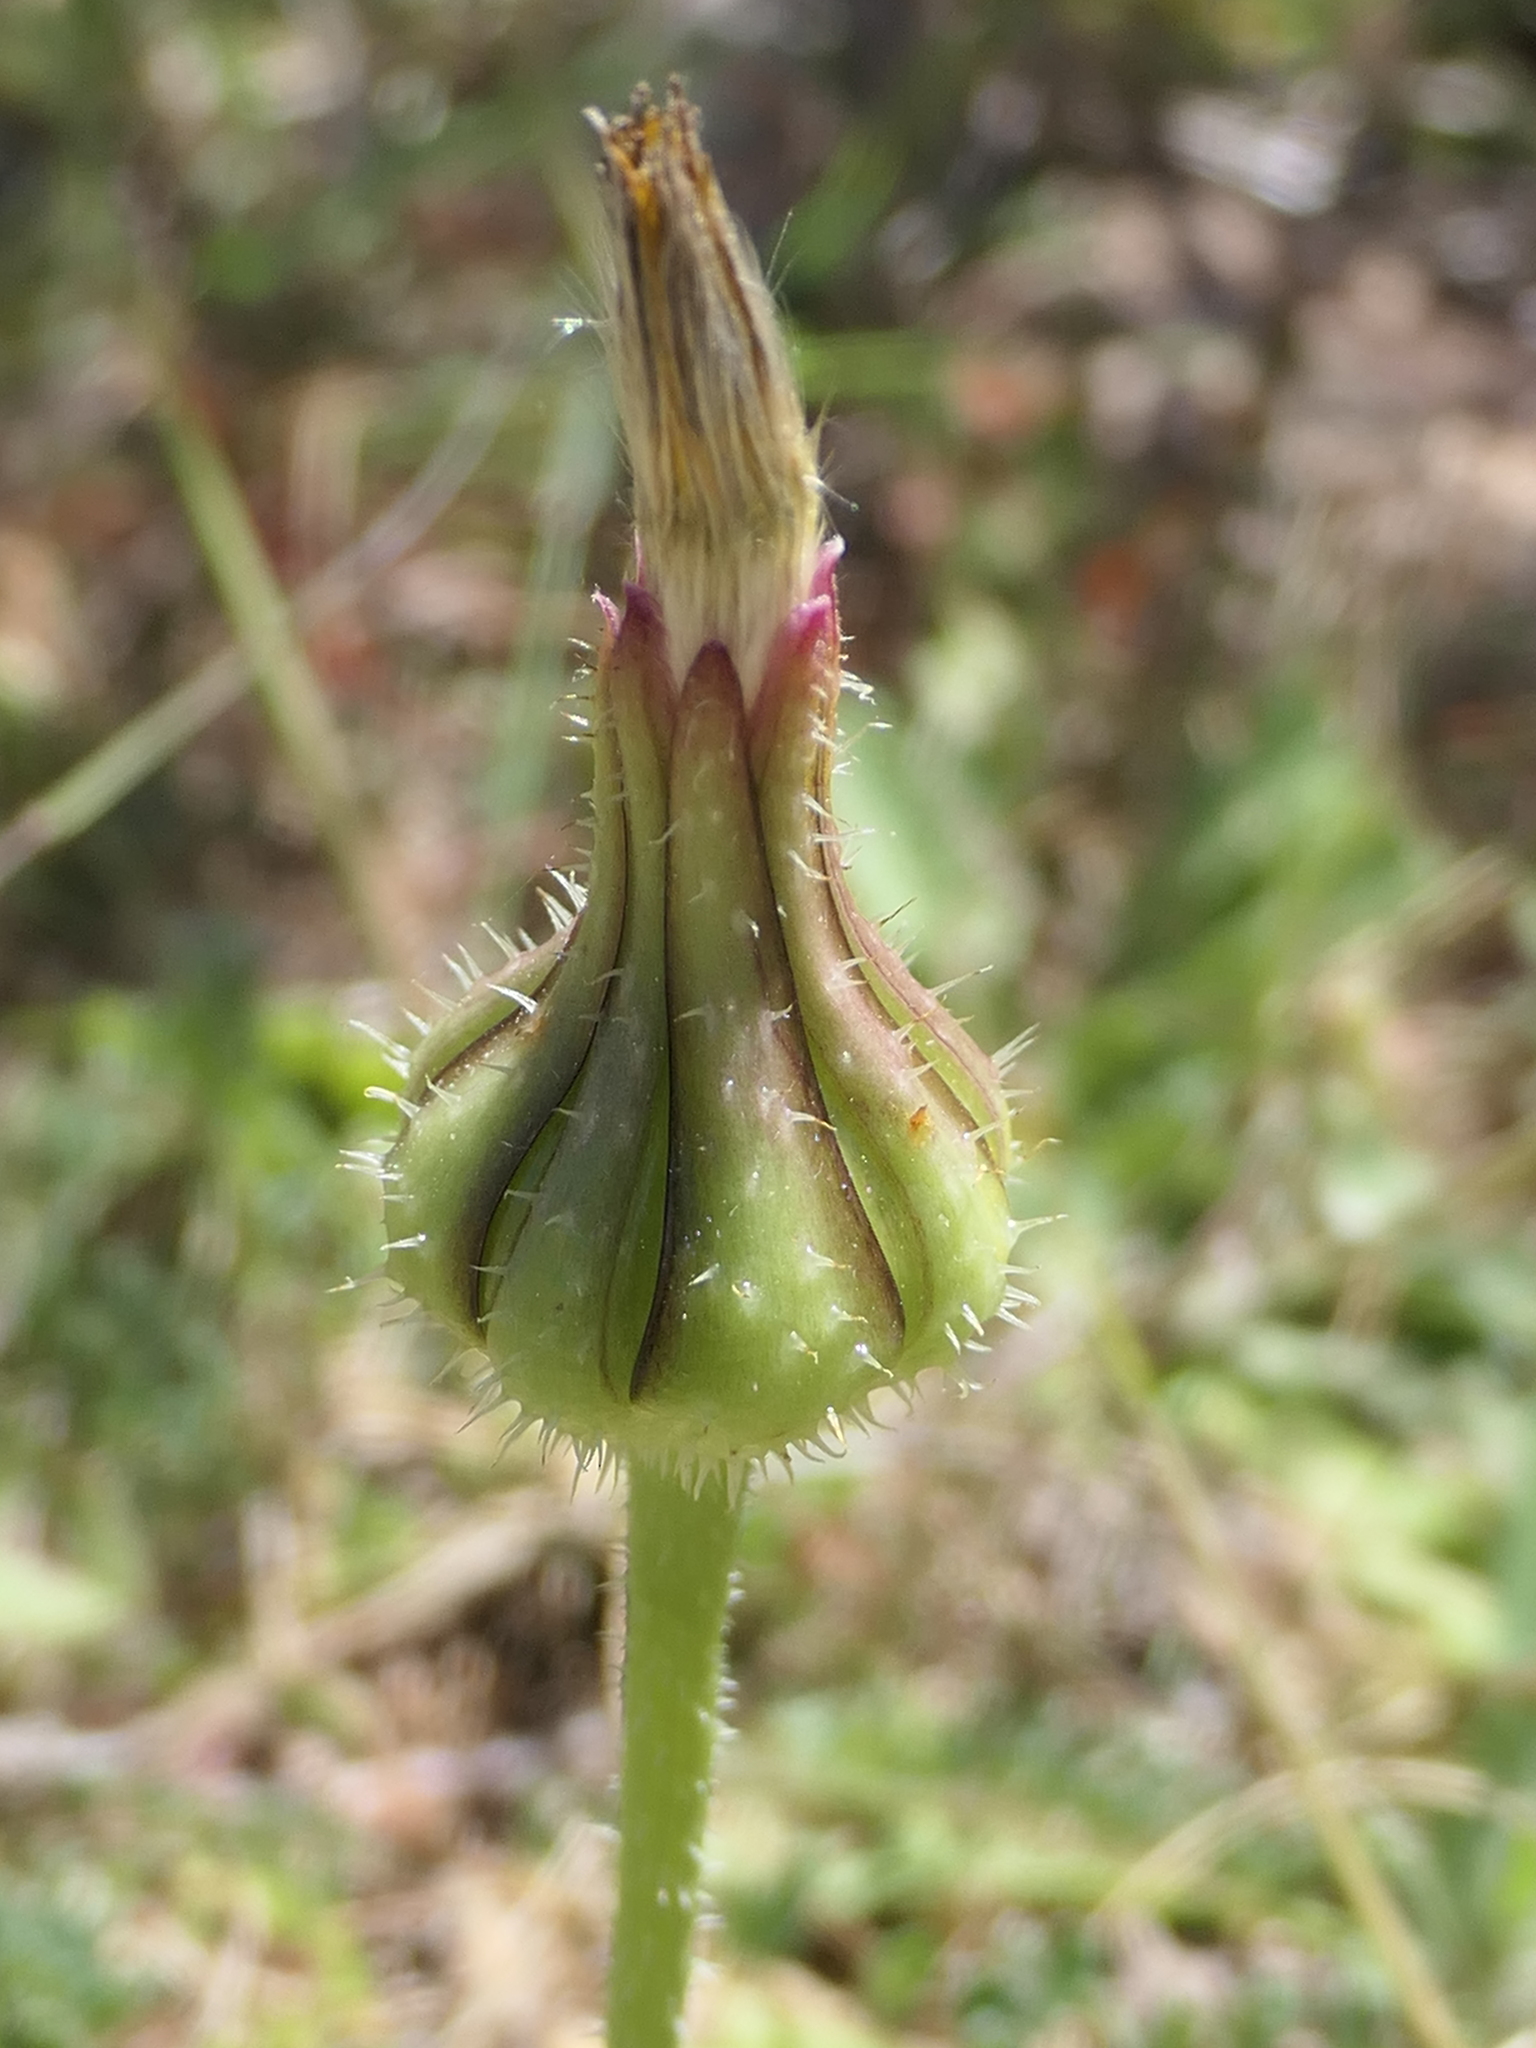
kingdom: Plantae
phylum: Tracheophyta
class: Magnoliopsida
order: Asterales
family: Asteraceae
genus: Urospermum
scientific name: Urospermum picroides
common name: False hawkbit
